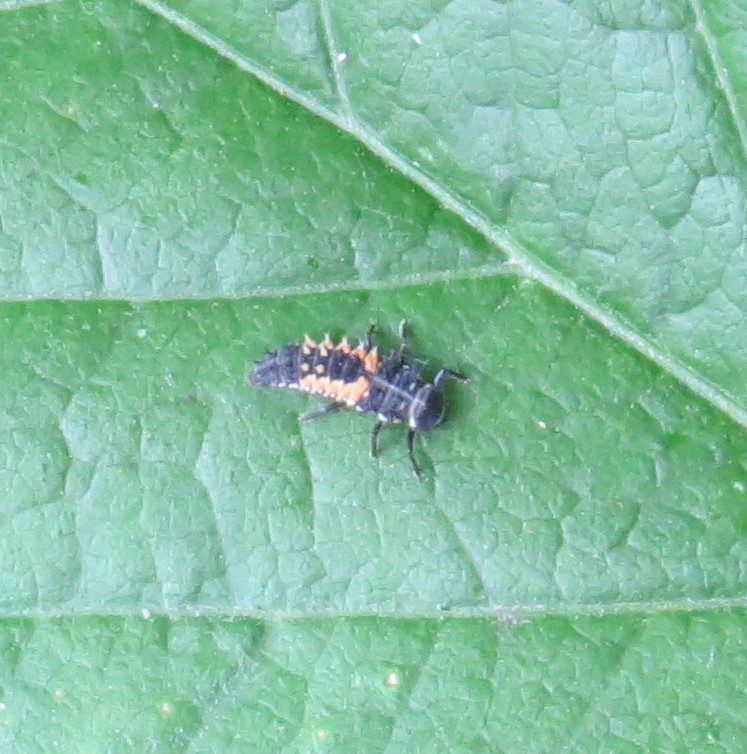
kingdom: Animalia
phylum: Arthropoda
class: Insecta
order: Coleoptera
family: Coccinellidae
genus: Harmonia
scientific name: Harmonia axyridis
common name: Harlequin ladybird
